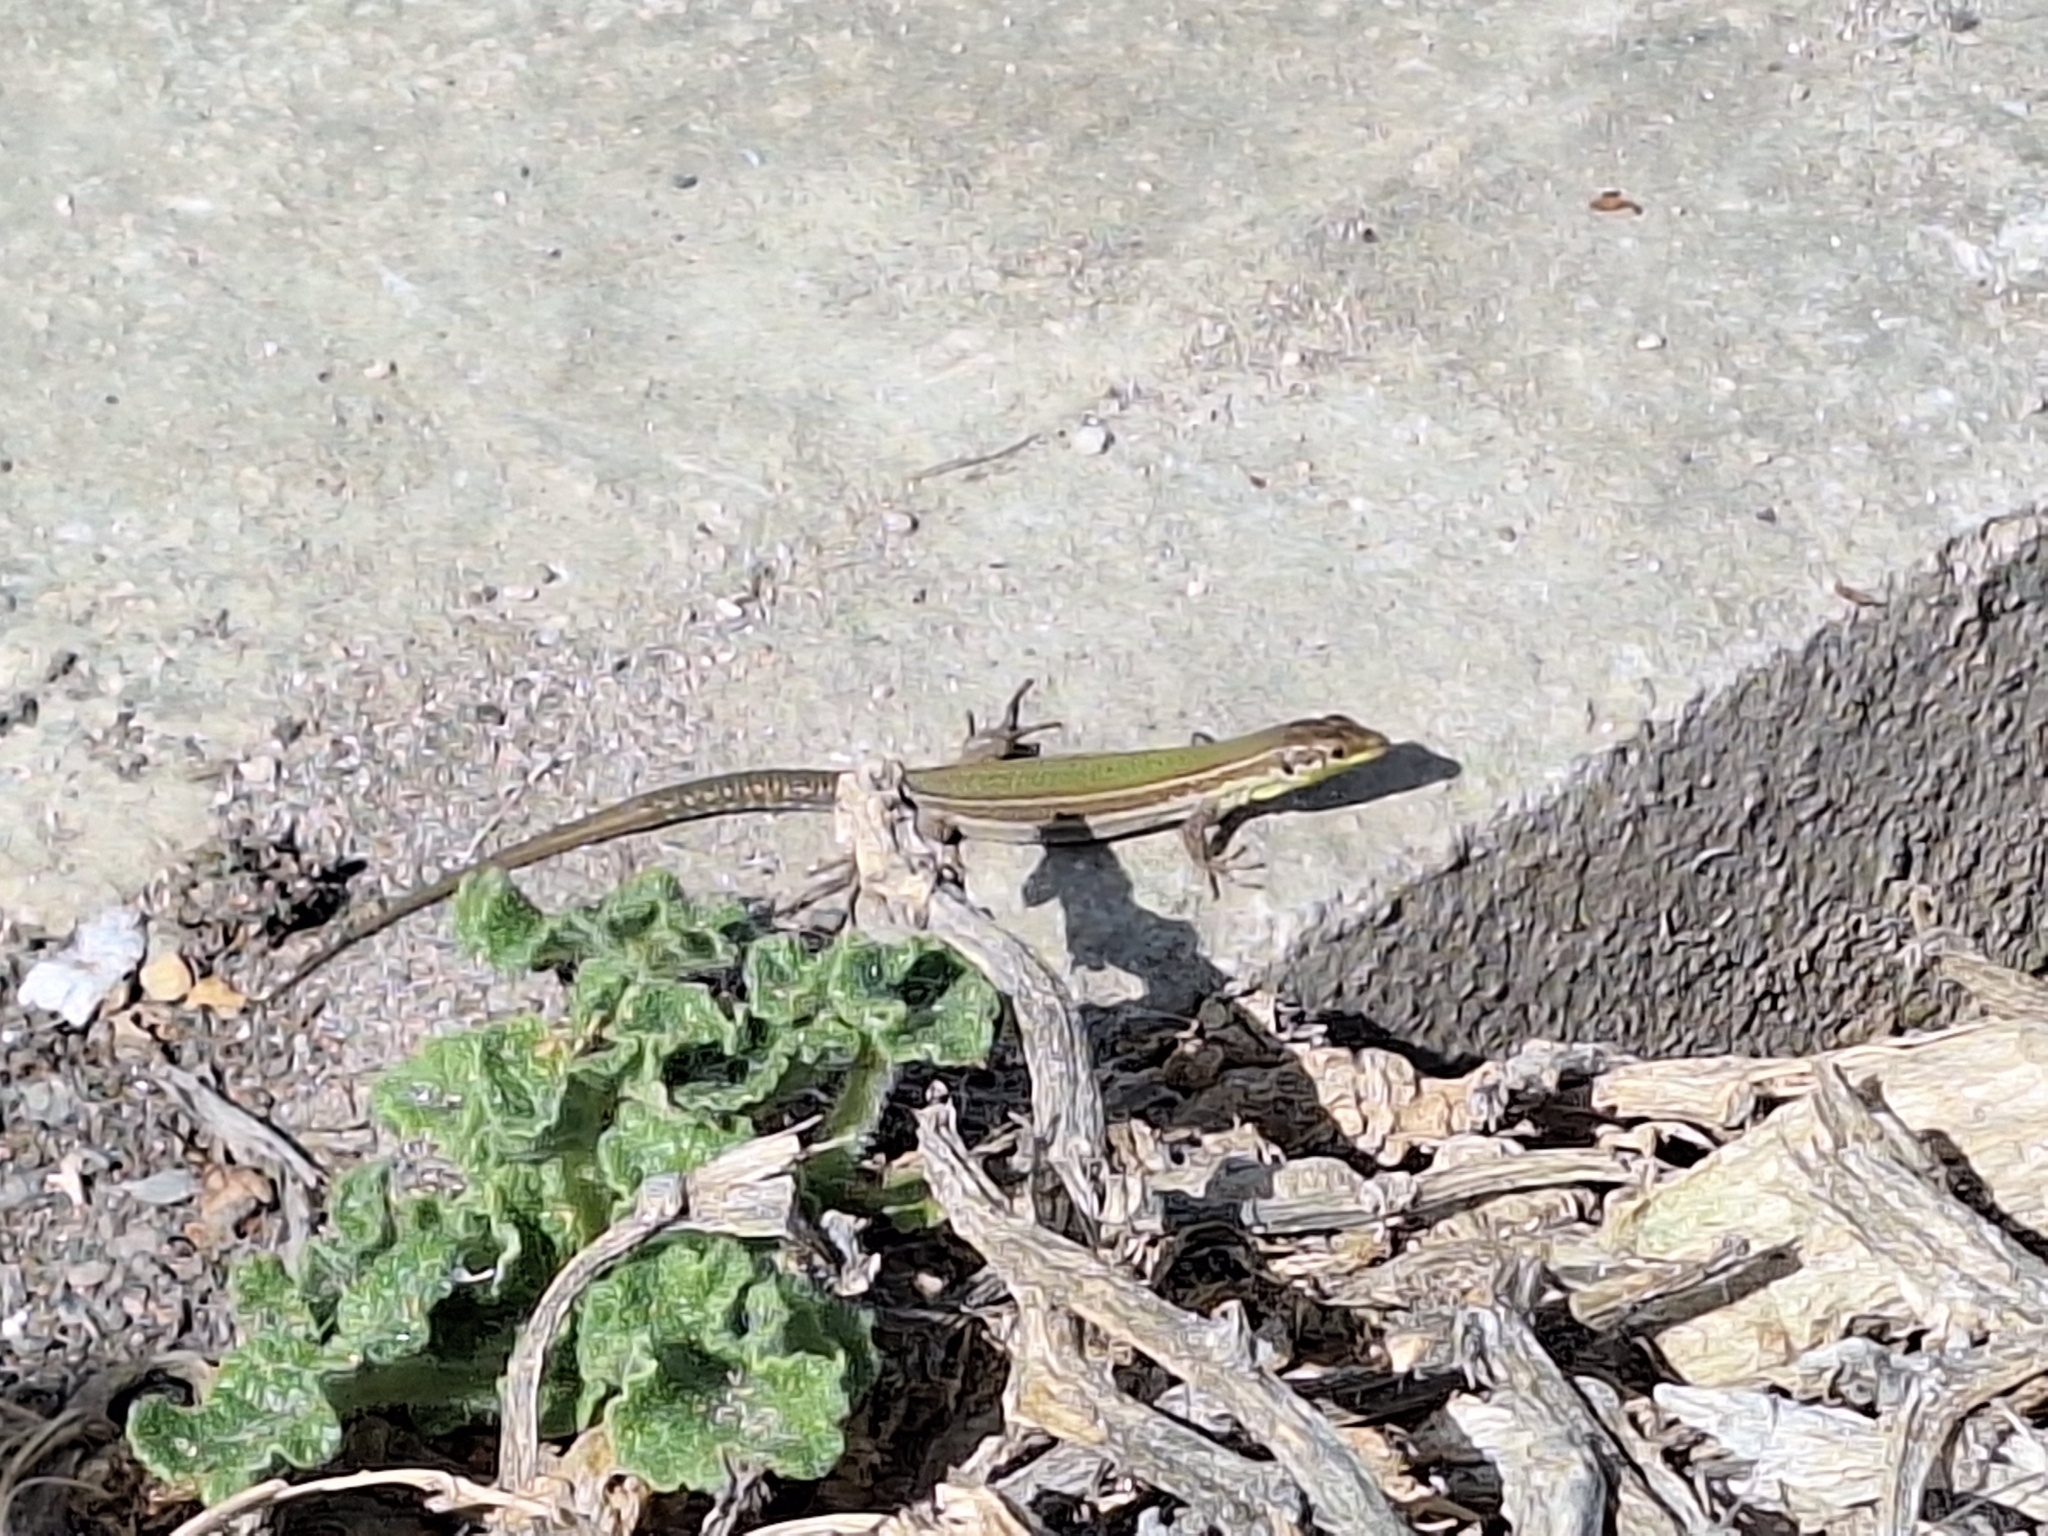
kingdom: Animalia
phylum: Chordata
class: Squamata
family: Lacertidae
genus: Podarcis
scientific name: Podarcis filfolensis
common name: Maltese wall lizard
